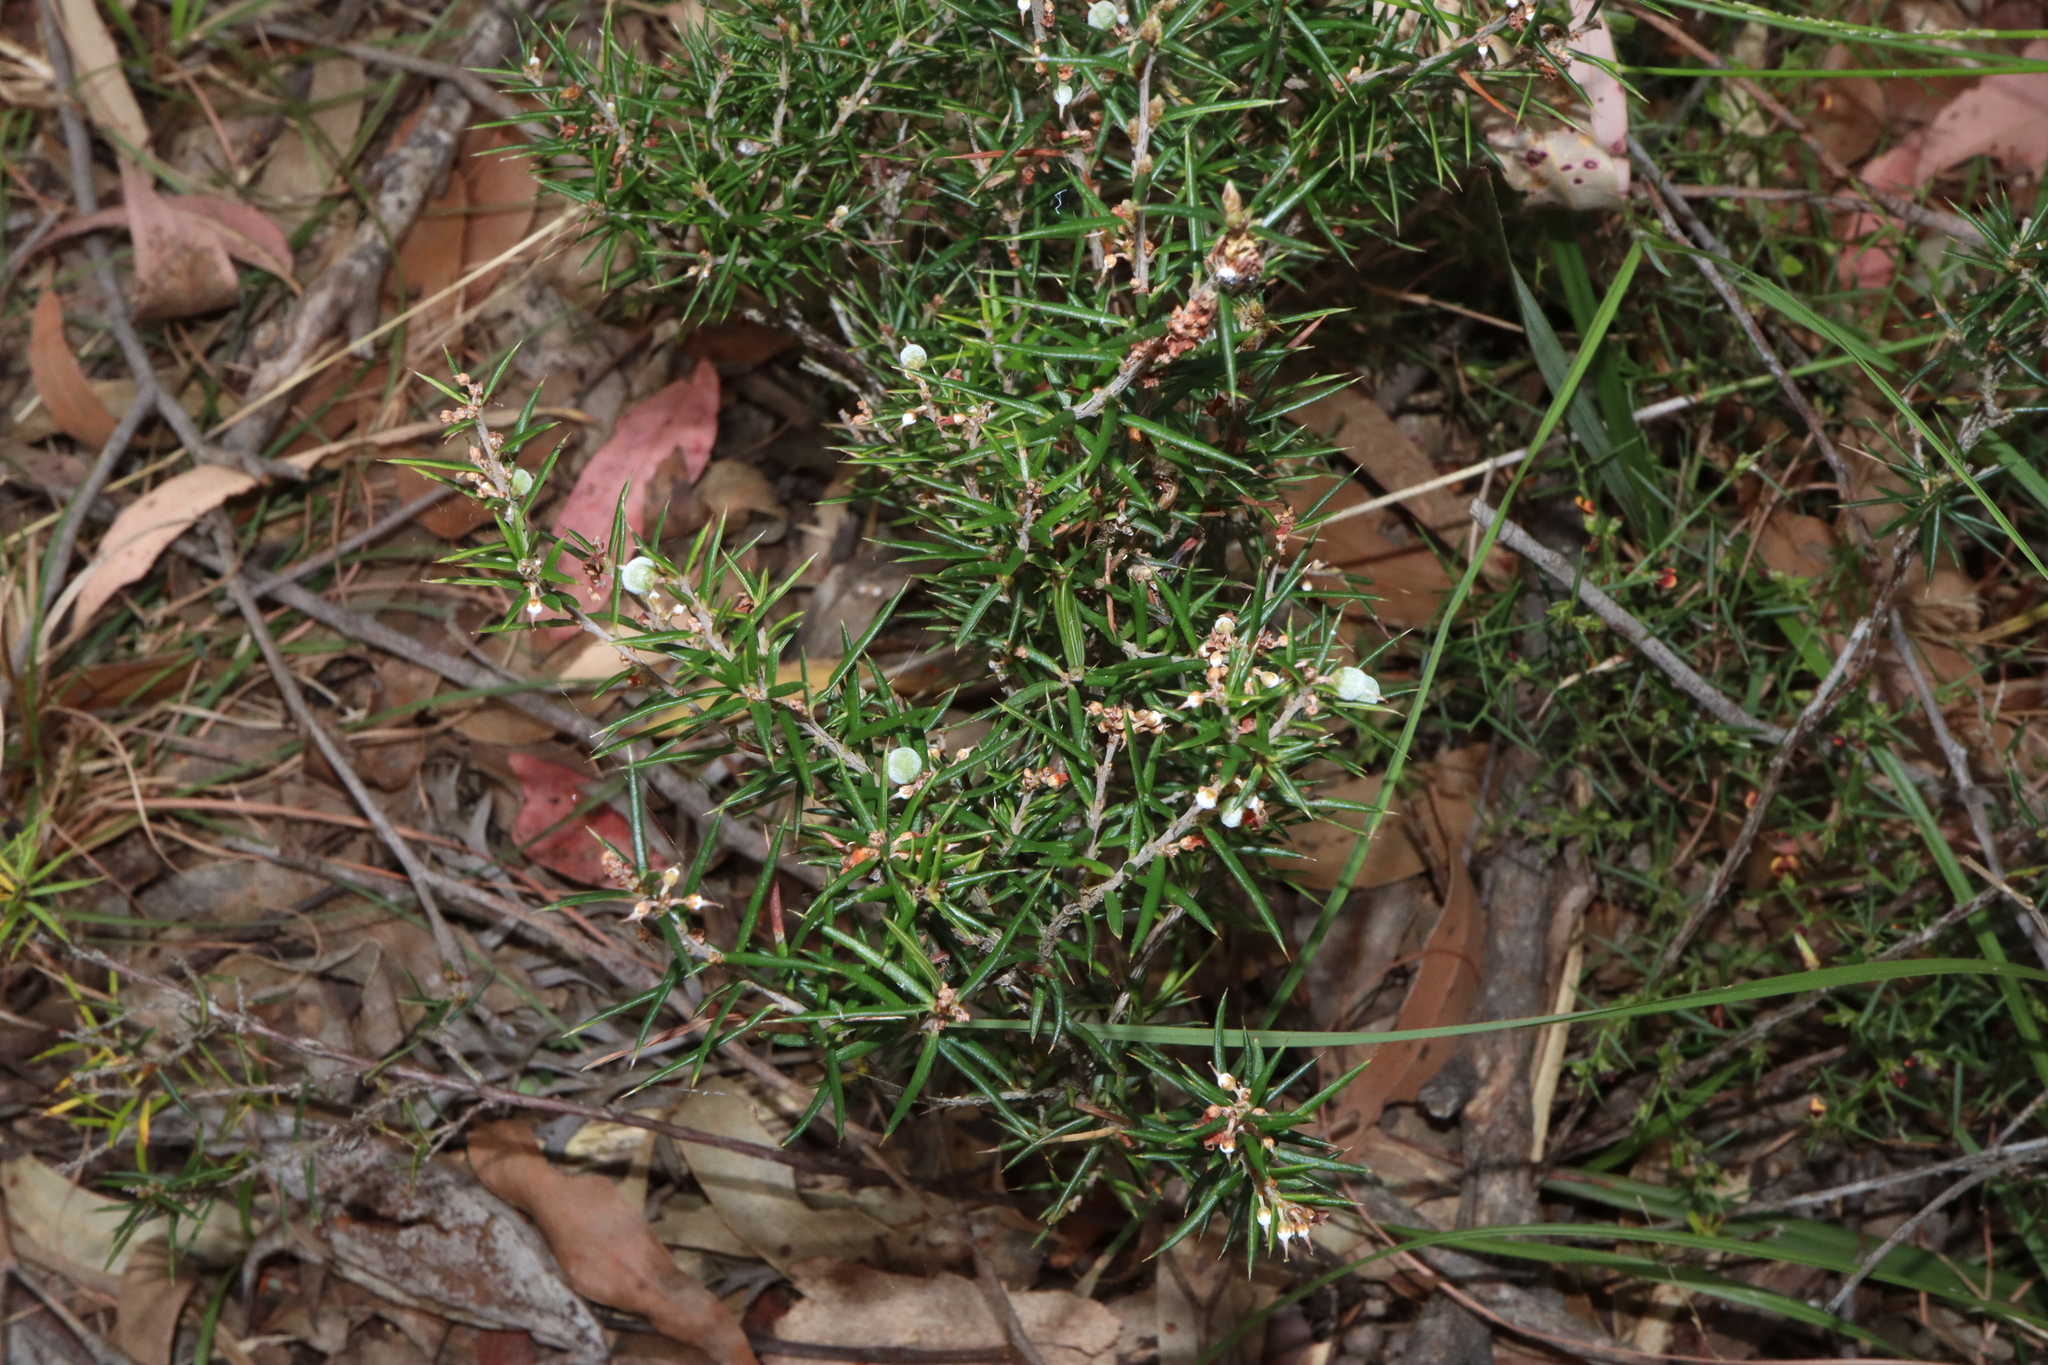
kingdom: Plantae
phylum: Tracheophyta
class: Magnoliopsida
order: Ericales
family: Ericaceae
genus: Lissanthe
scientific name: Lissanthe strigosa
